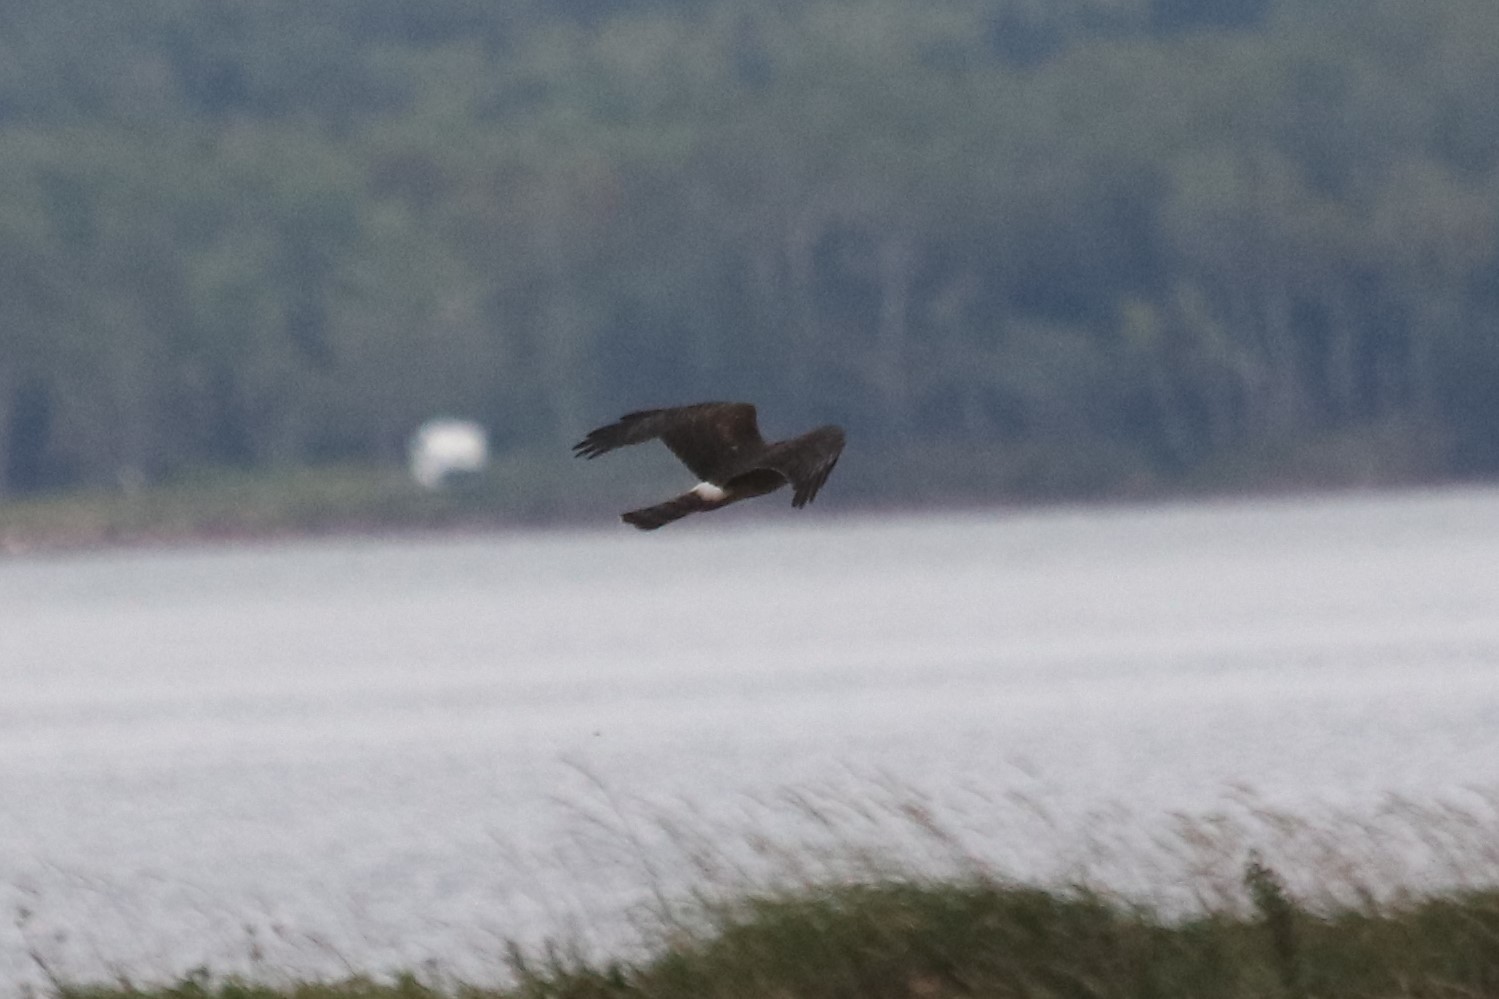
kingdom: Animalia
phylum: Chordata
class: Aves
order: Accipitriformes
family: Accipitridae
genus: Circus
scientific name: Circus cyaneus
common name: Hen harrier
